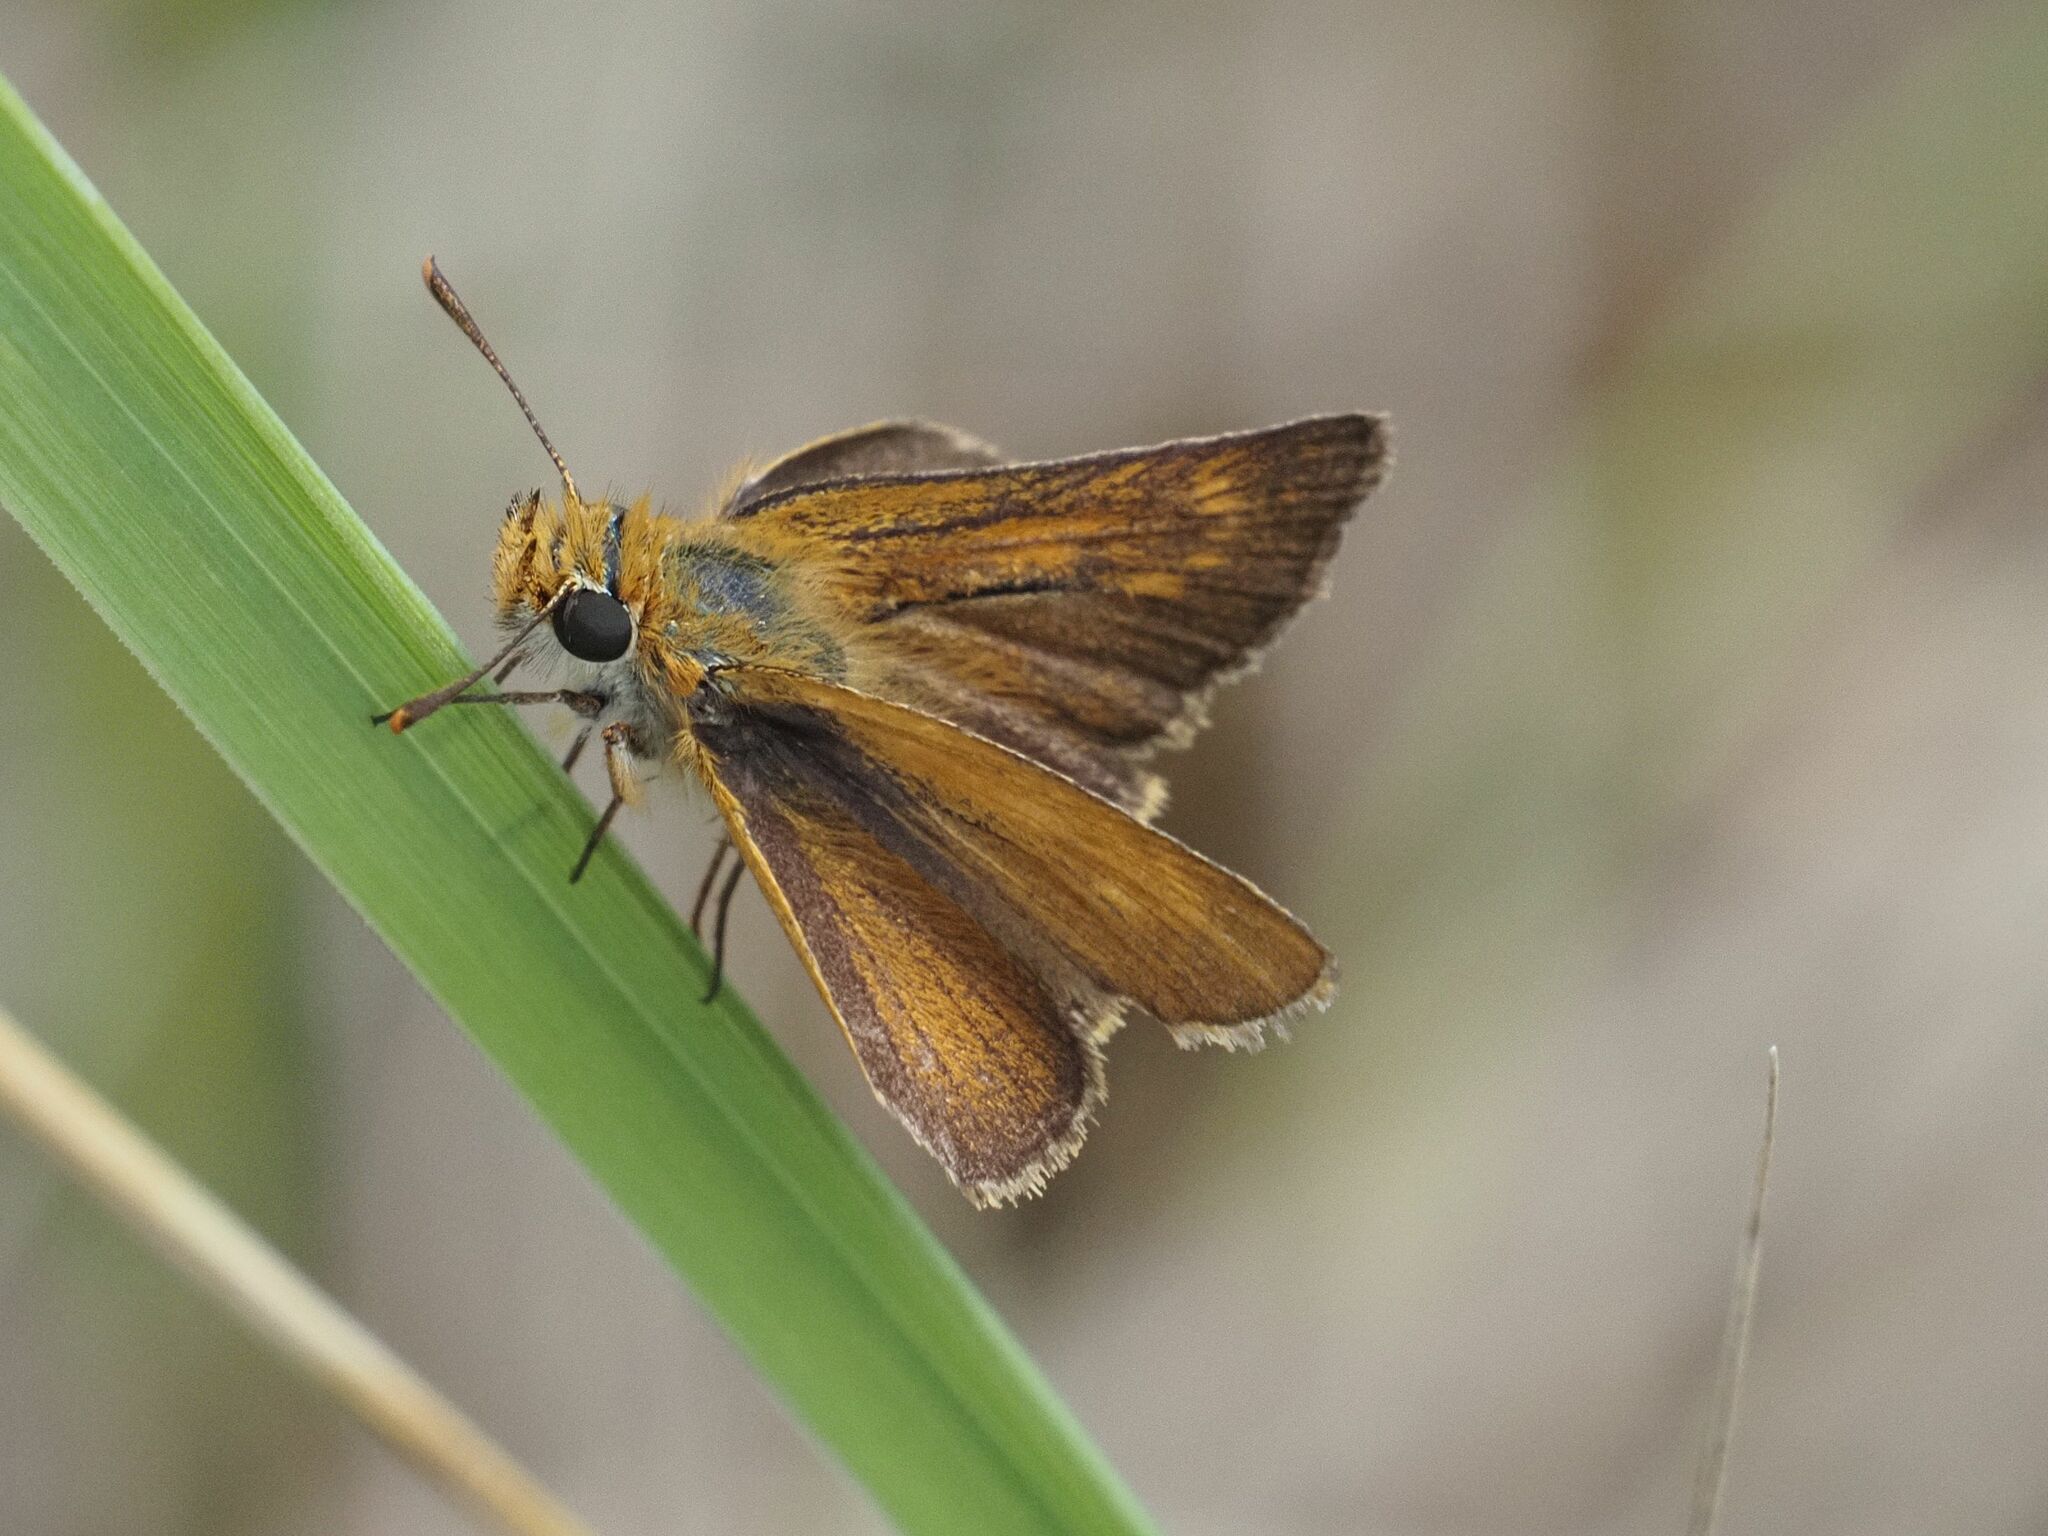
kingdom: Animalia
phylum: Arthropoda
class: Insecta
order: Lepidoptera
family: Hesperiidae
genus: Thymelicus
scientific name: Thymelicus acteon
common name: Lulworth skipper
